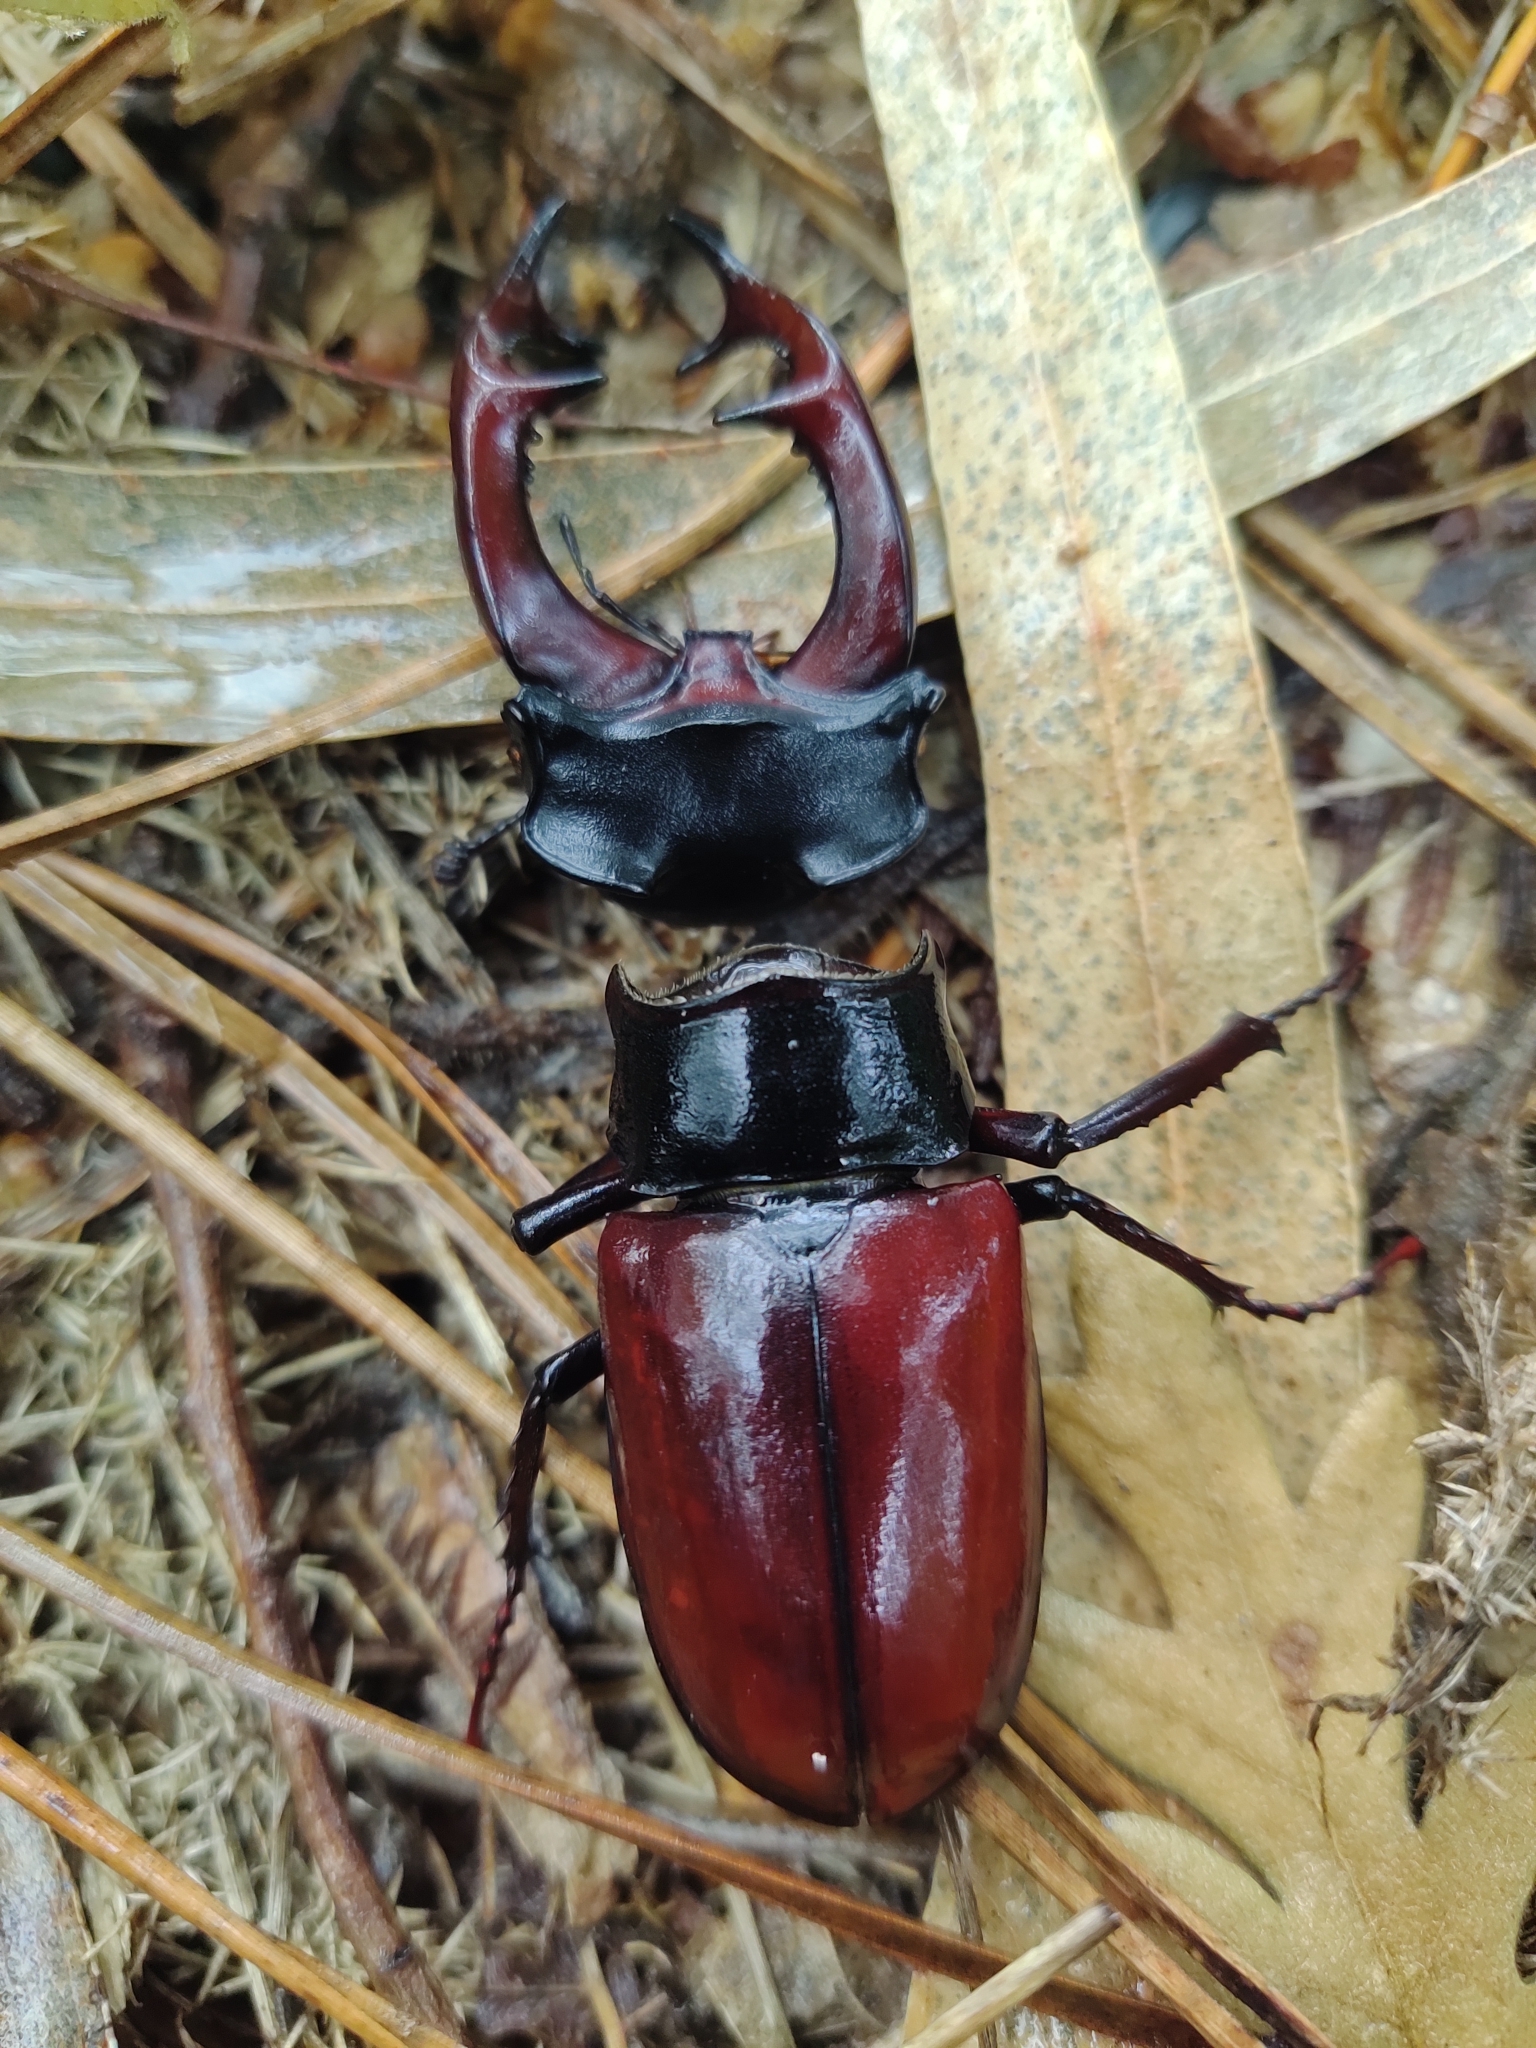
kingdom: Animalia
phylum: Arthropoda
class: Insecta
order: Coleoptera
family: Lucanidae
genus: Lucanus
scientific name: Lucanus cervus
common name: Stag beetle
